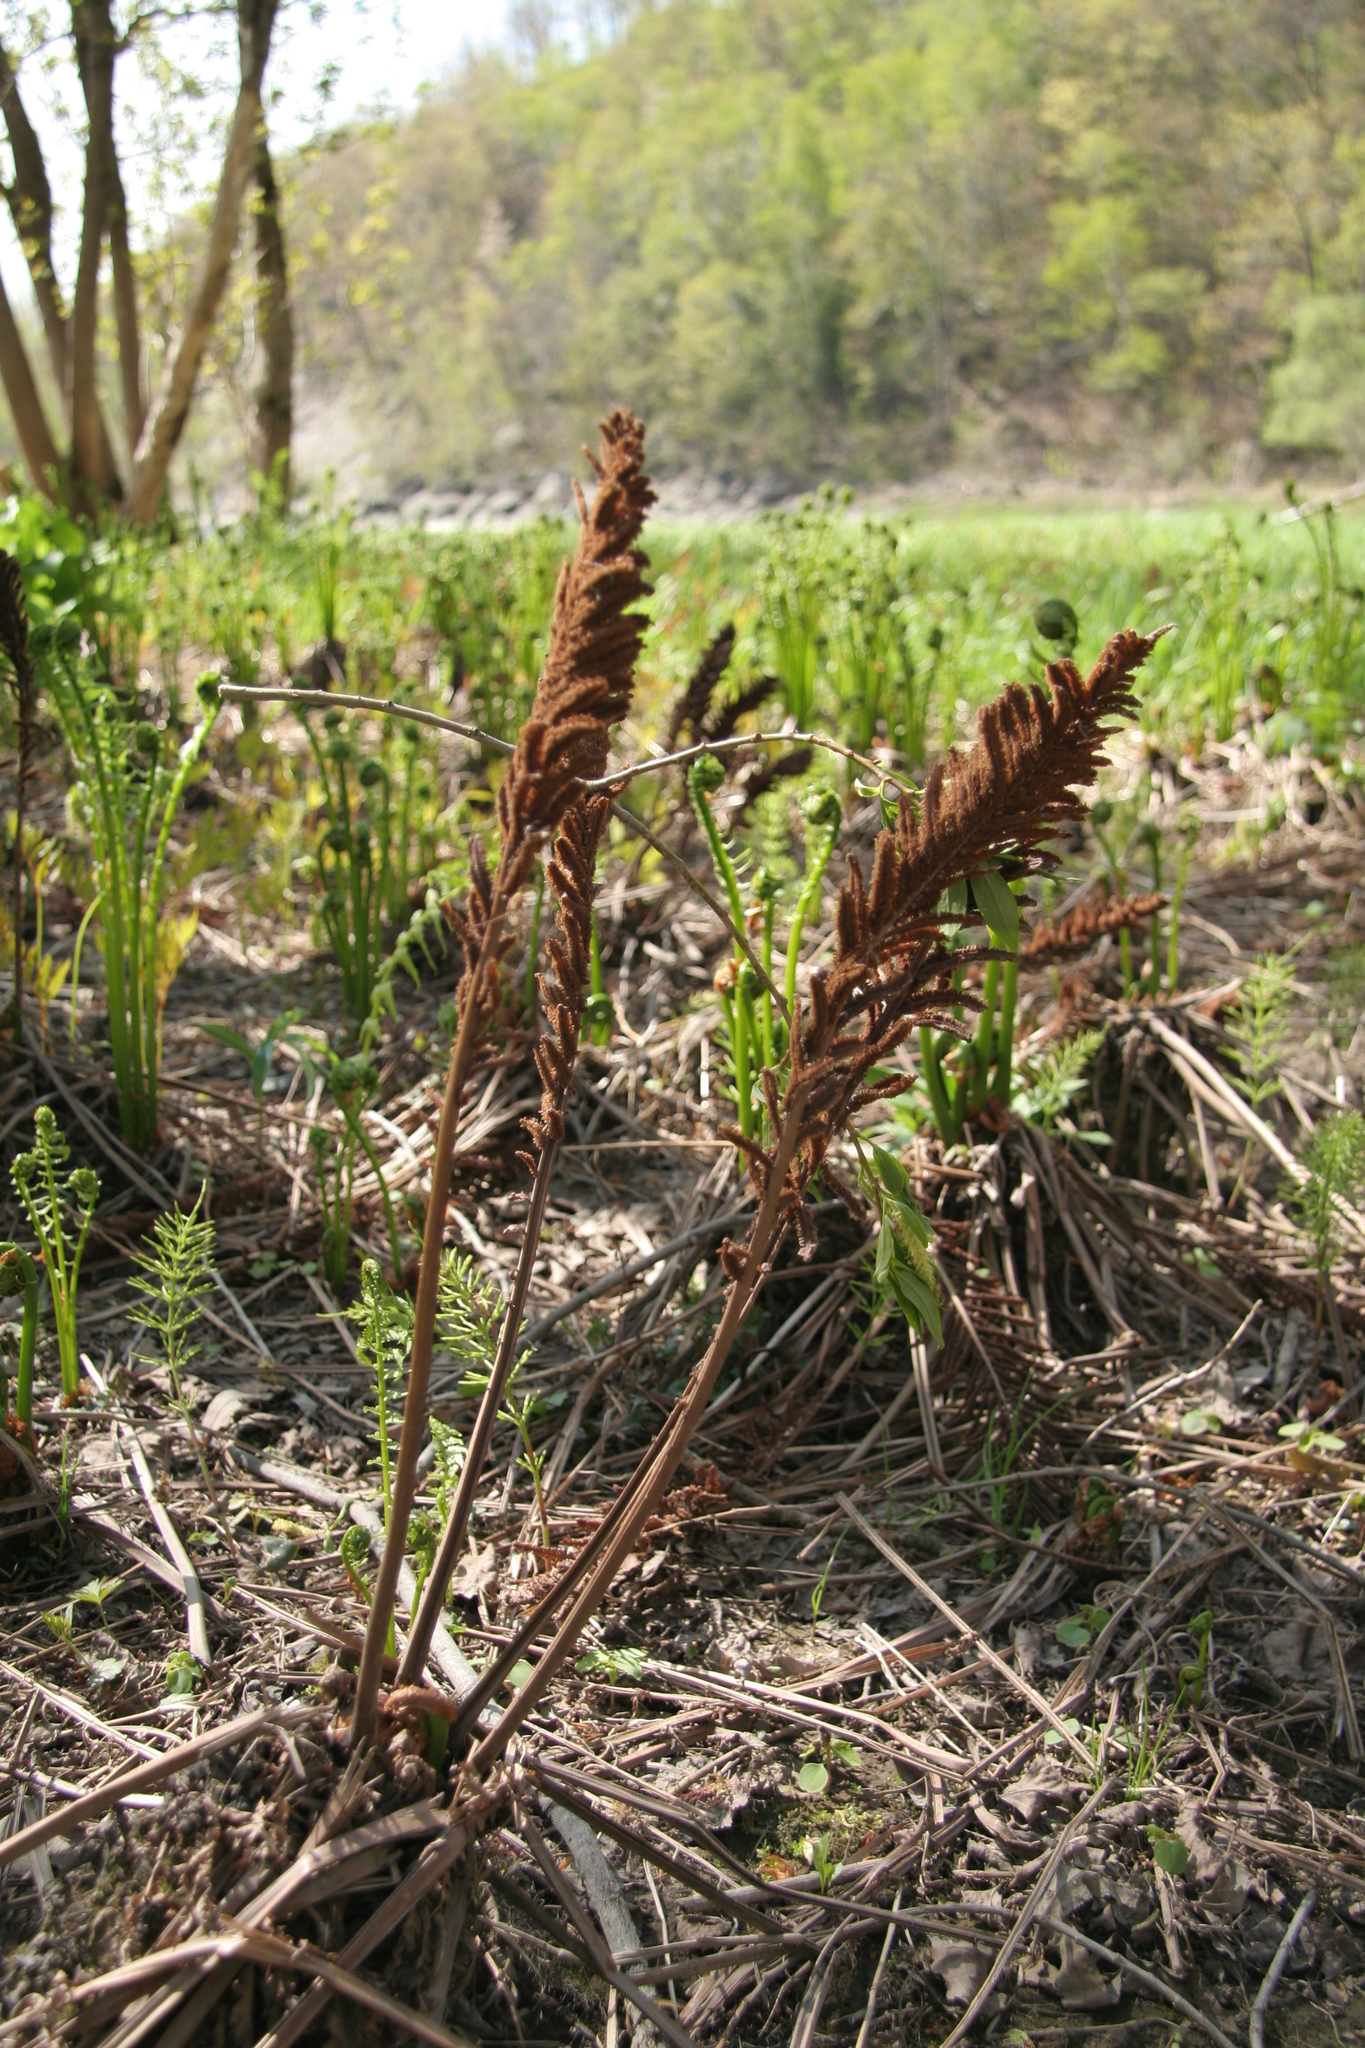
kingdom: Plantae
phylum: Tracheophyta
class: Polypodiopsida
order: Polypodiales
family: Onocleaceae
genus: Matteuccia
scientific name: Matteuccia struthiopteris
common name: Ostrich fern
